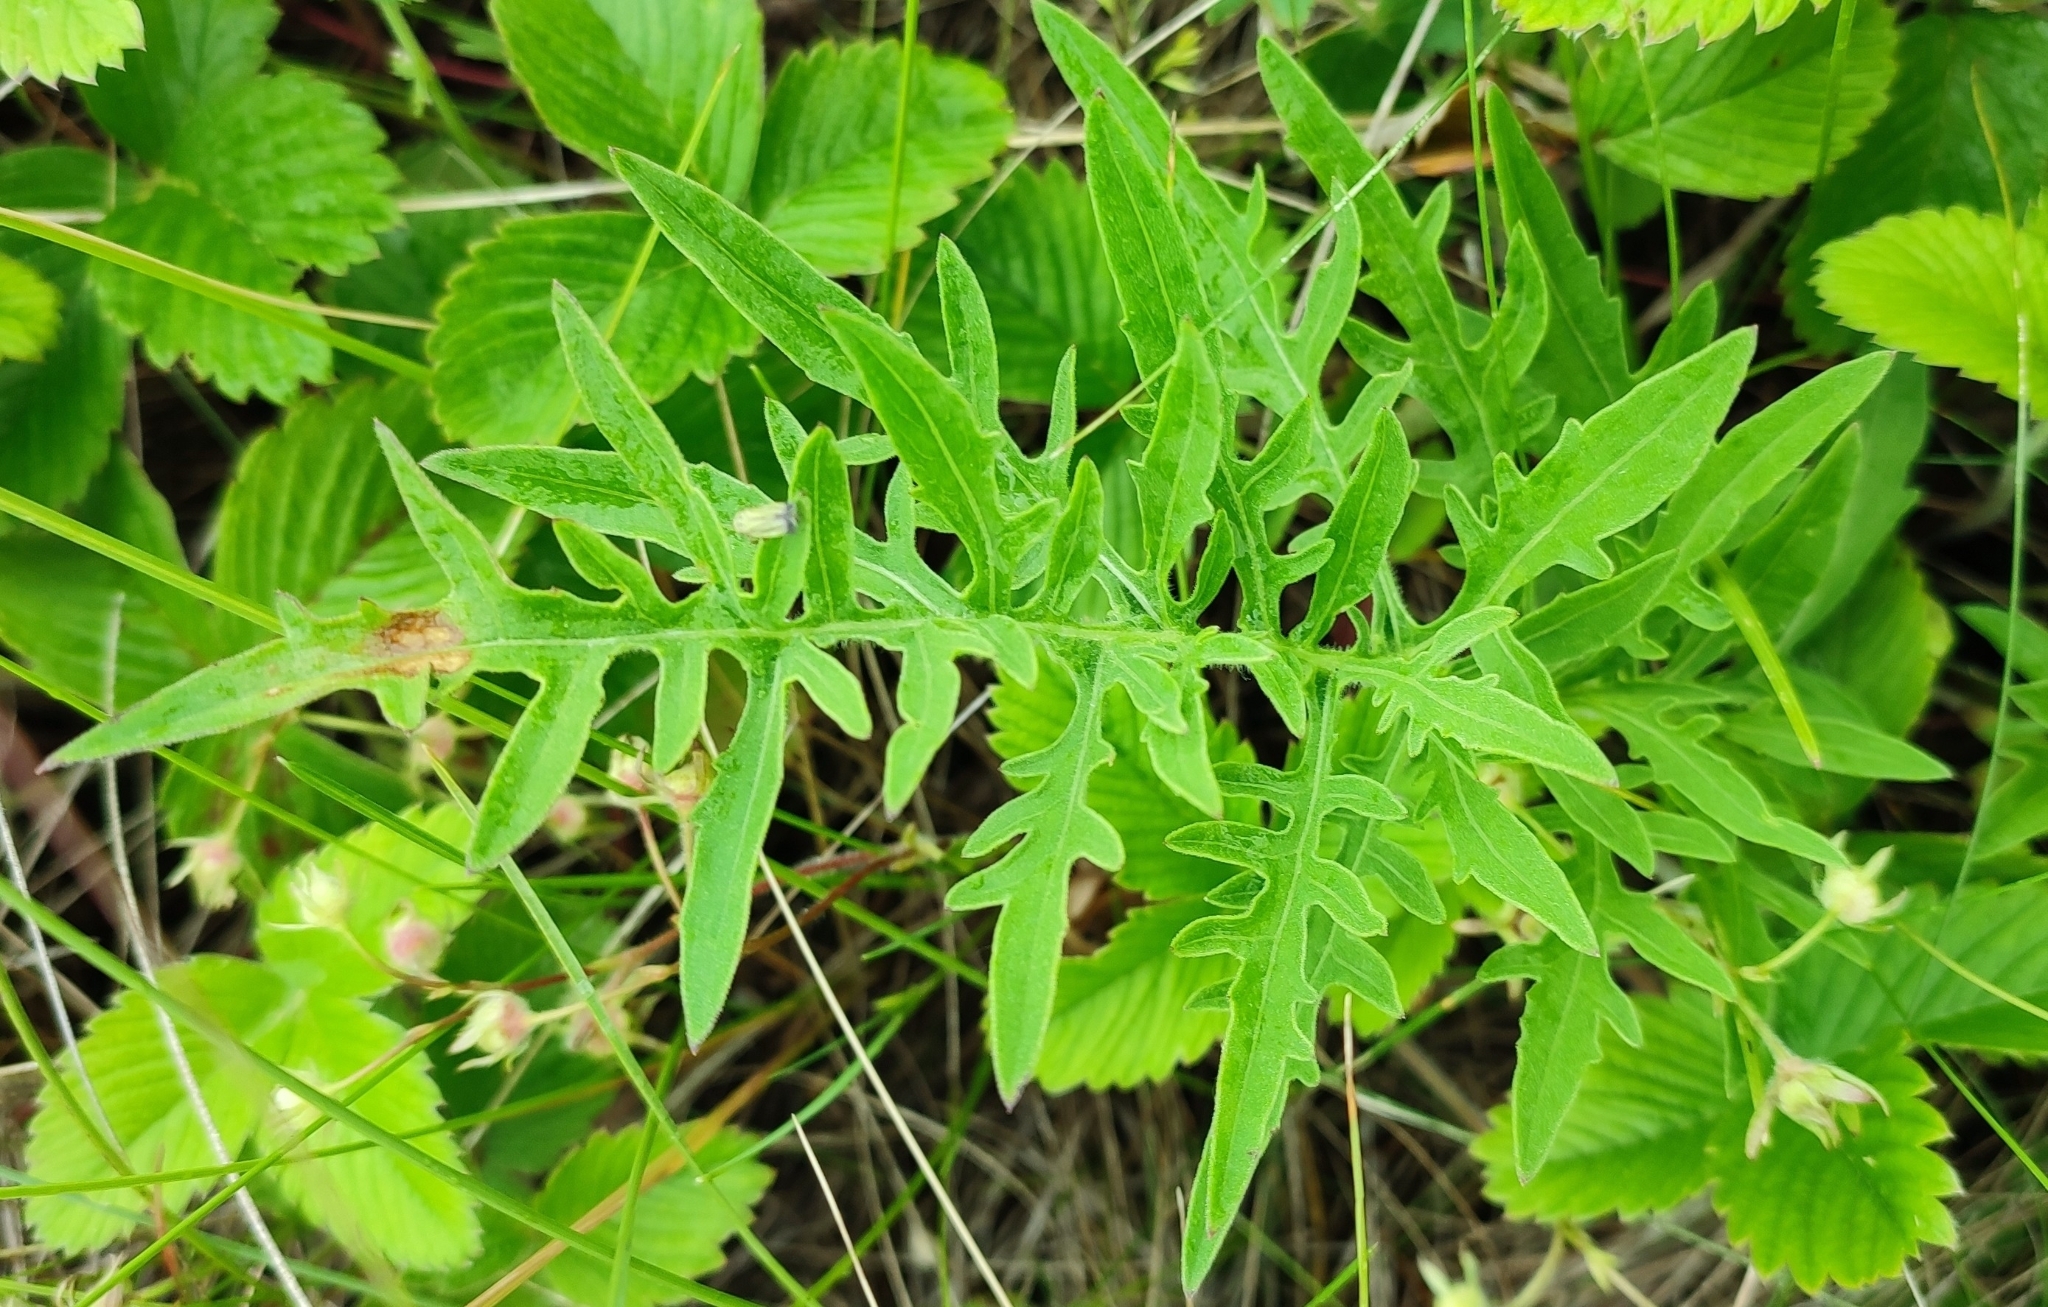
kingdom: Plantae
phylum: Tracheophyta
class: Magnoliopsida
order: Asterales
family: Asteraceae
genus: Centaurea
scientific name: Centaurea scabiosa
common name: Greater knapweed
